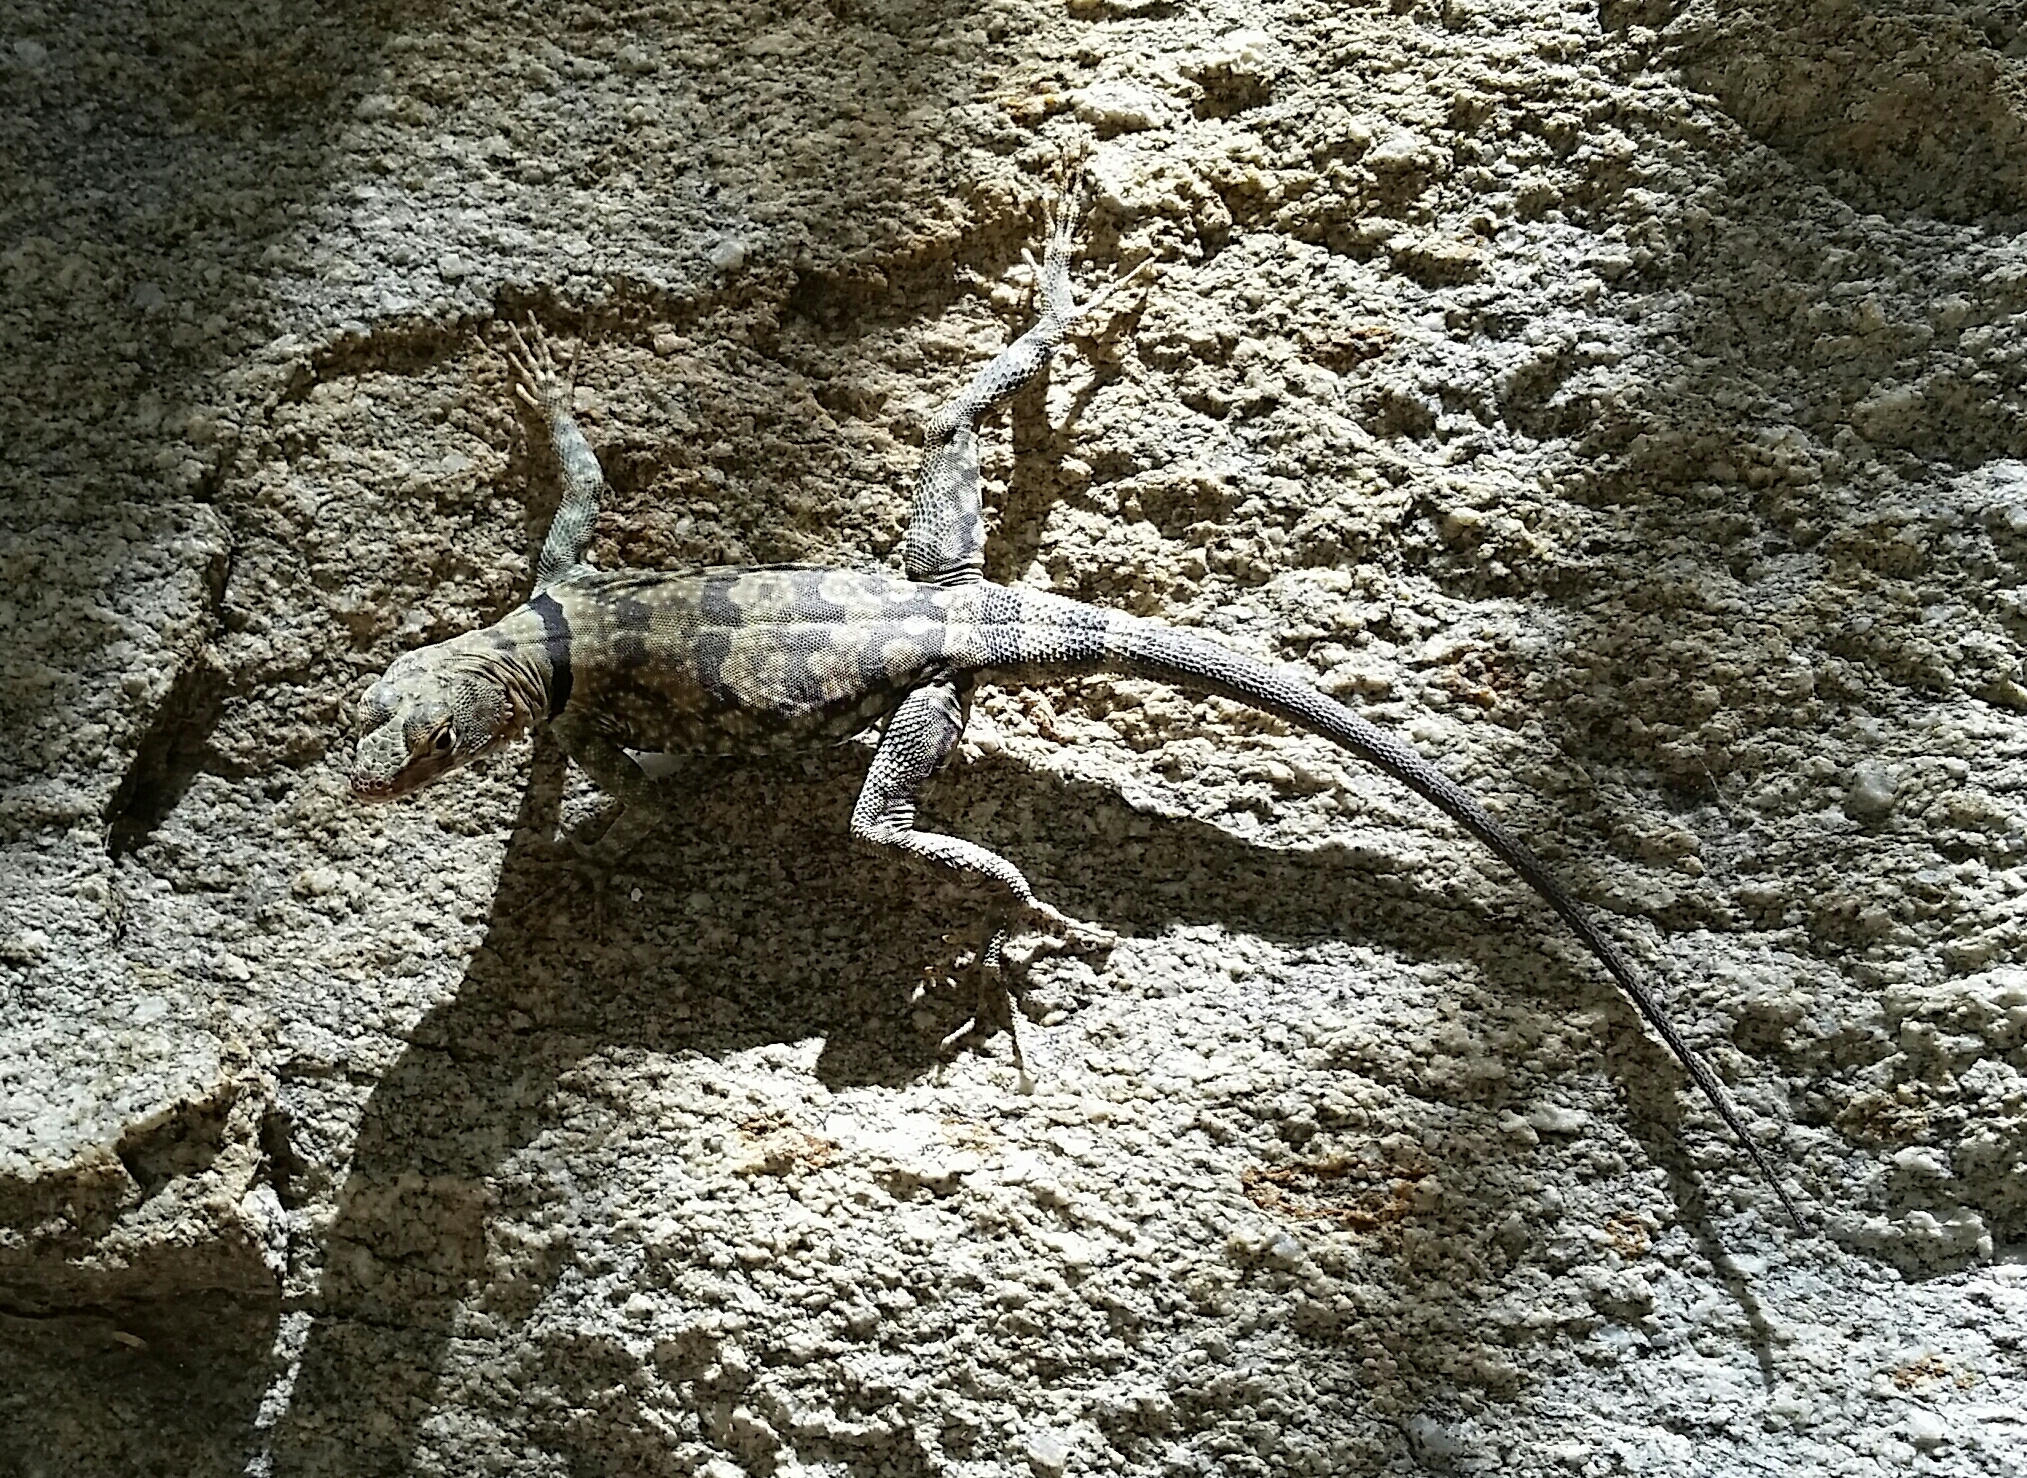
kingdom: Animalia
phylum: Chordata
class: Squamata
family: Phrynosomatidae
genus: Petrosaurus
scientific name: Petrosaurus mearnsi
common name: Banded rock lizard
